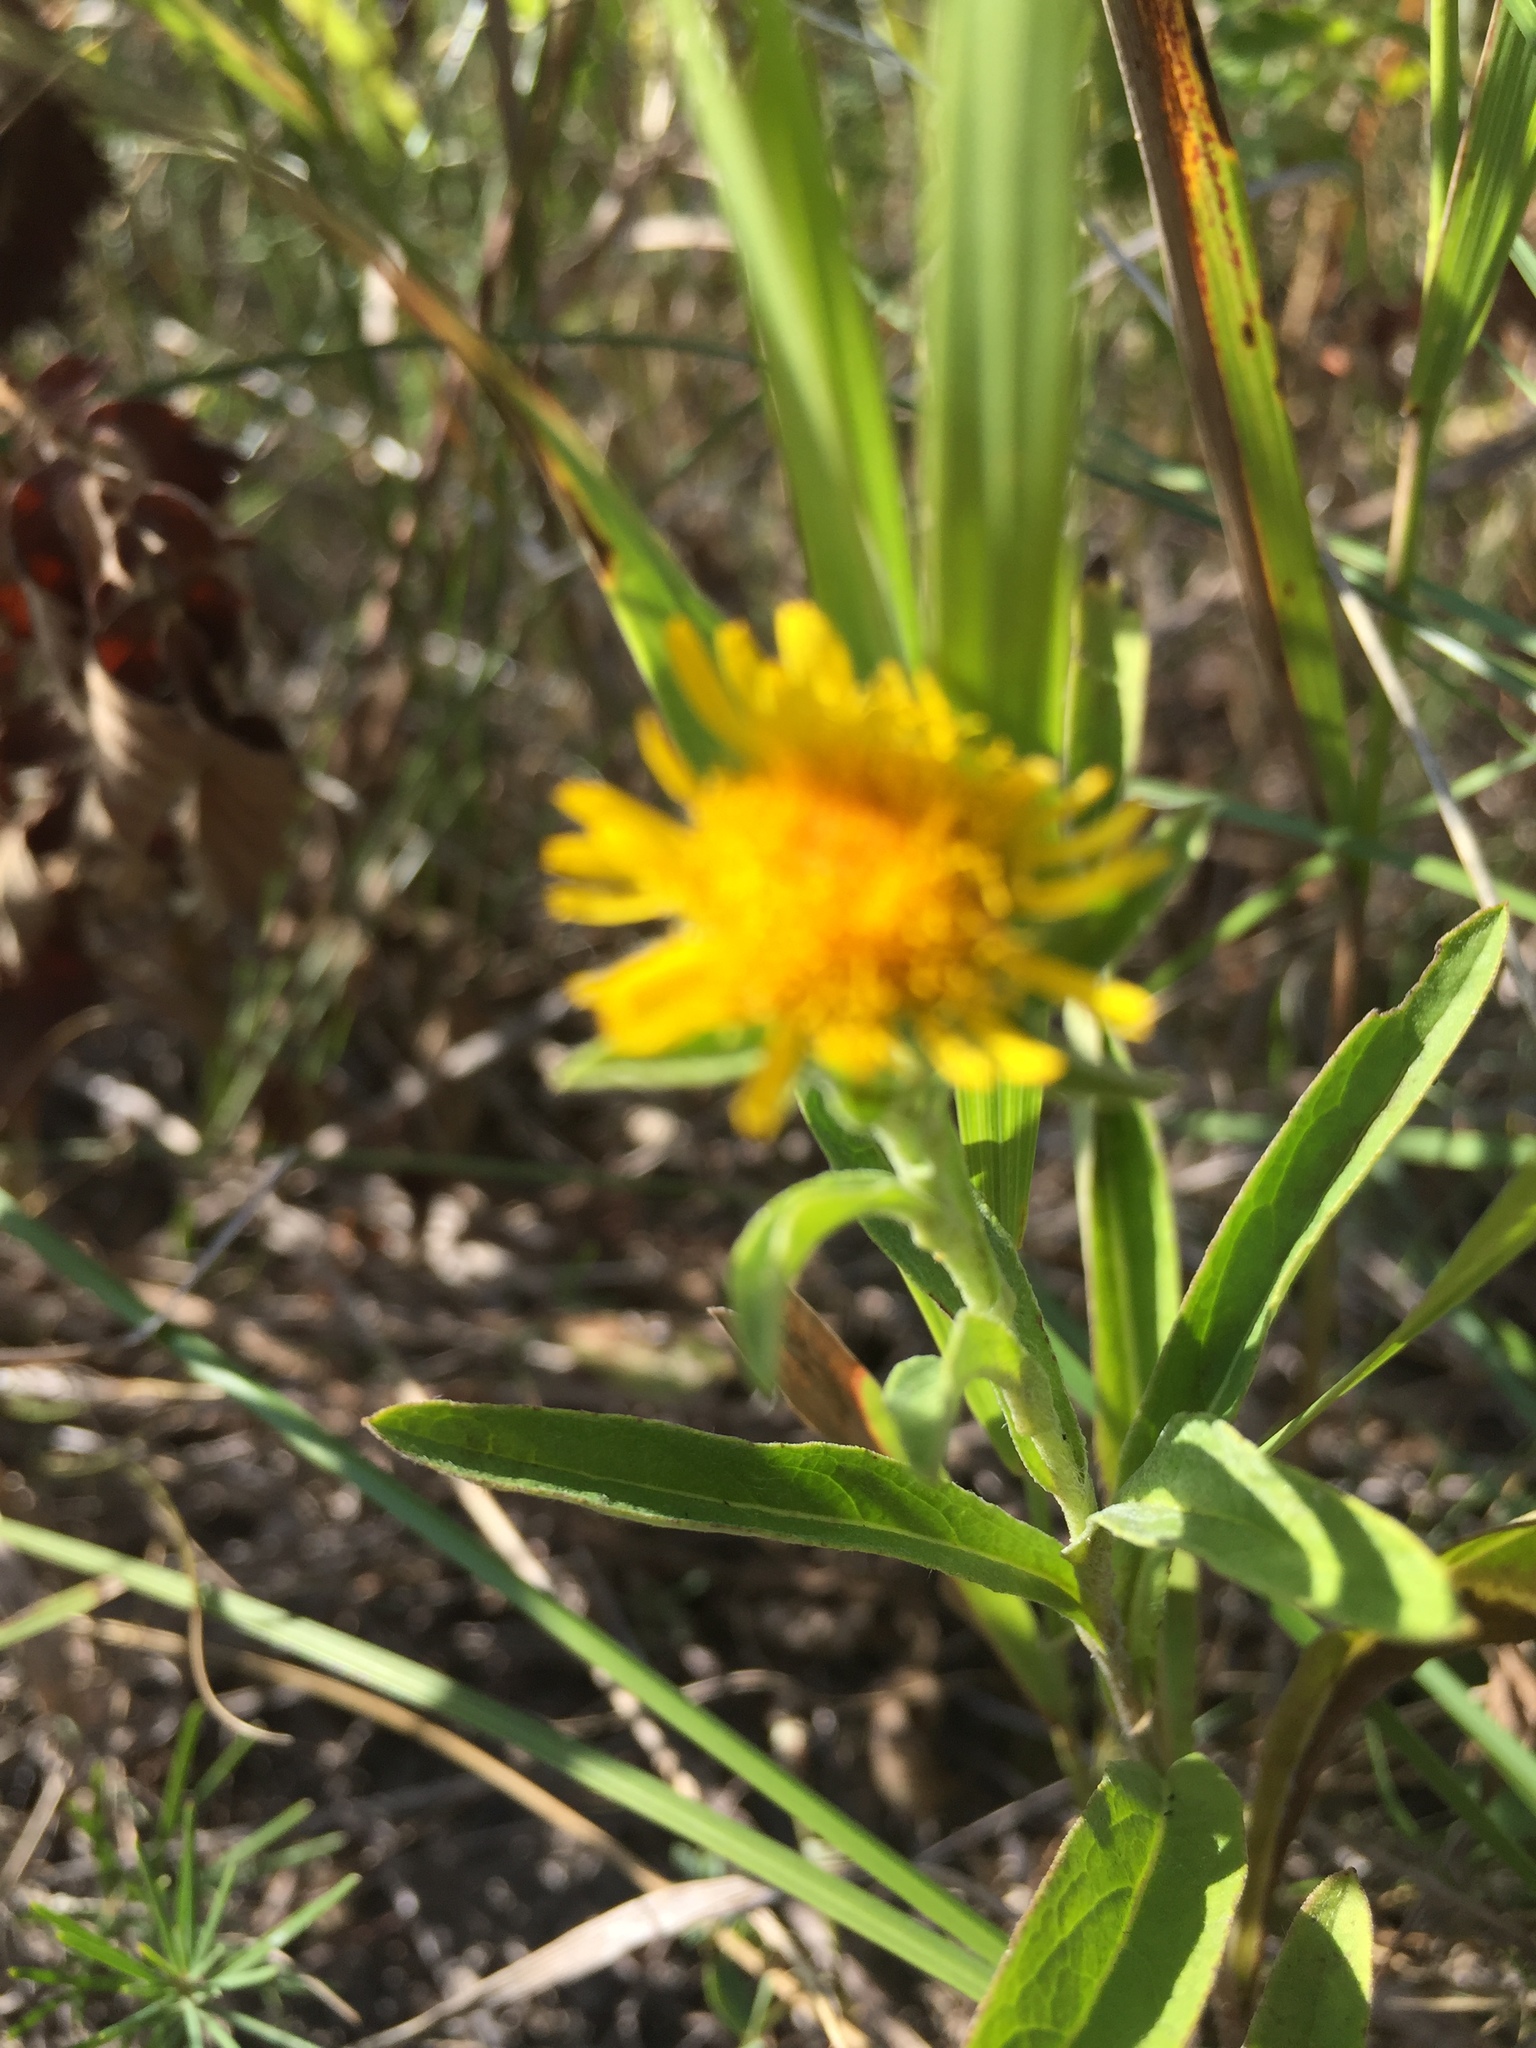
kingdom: Plantae
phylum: Tracheophyta
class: Magnoliopsida
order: Asterales
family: Asteraceae
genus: Pentanema
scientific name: Pentanema britannicum
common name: British elecampane
